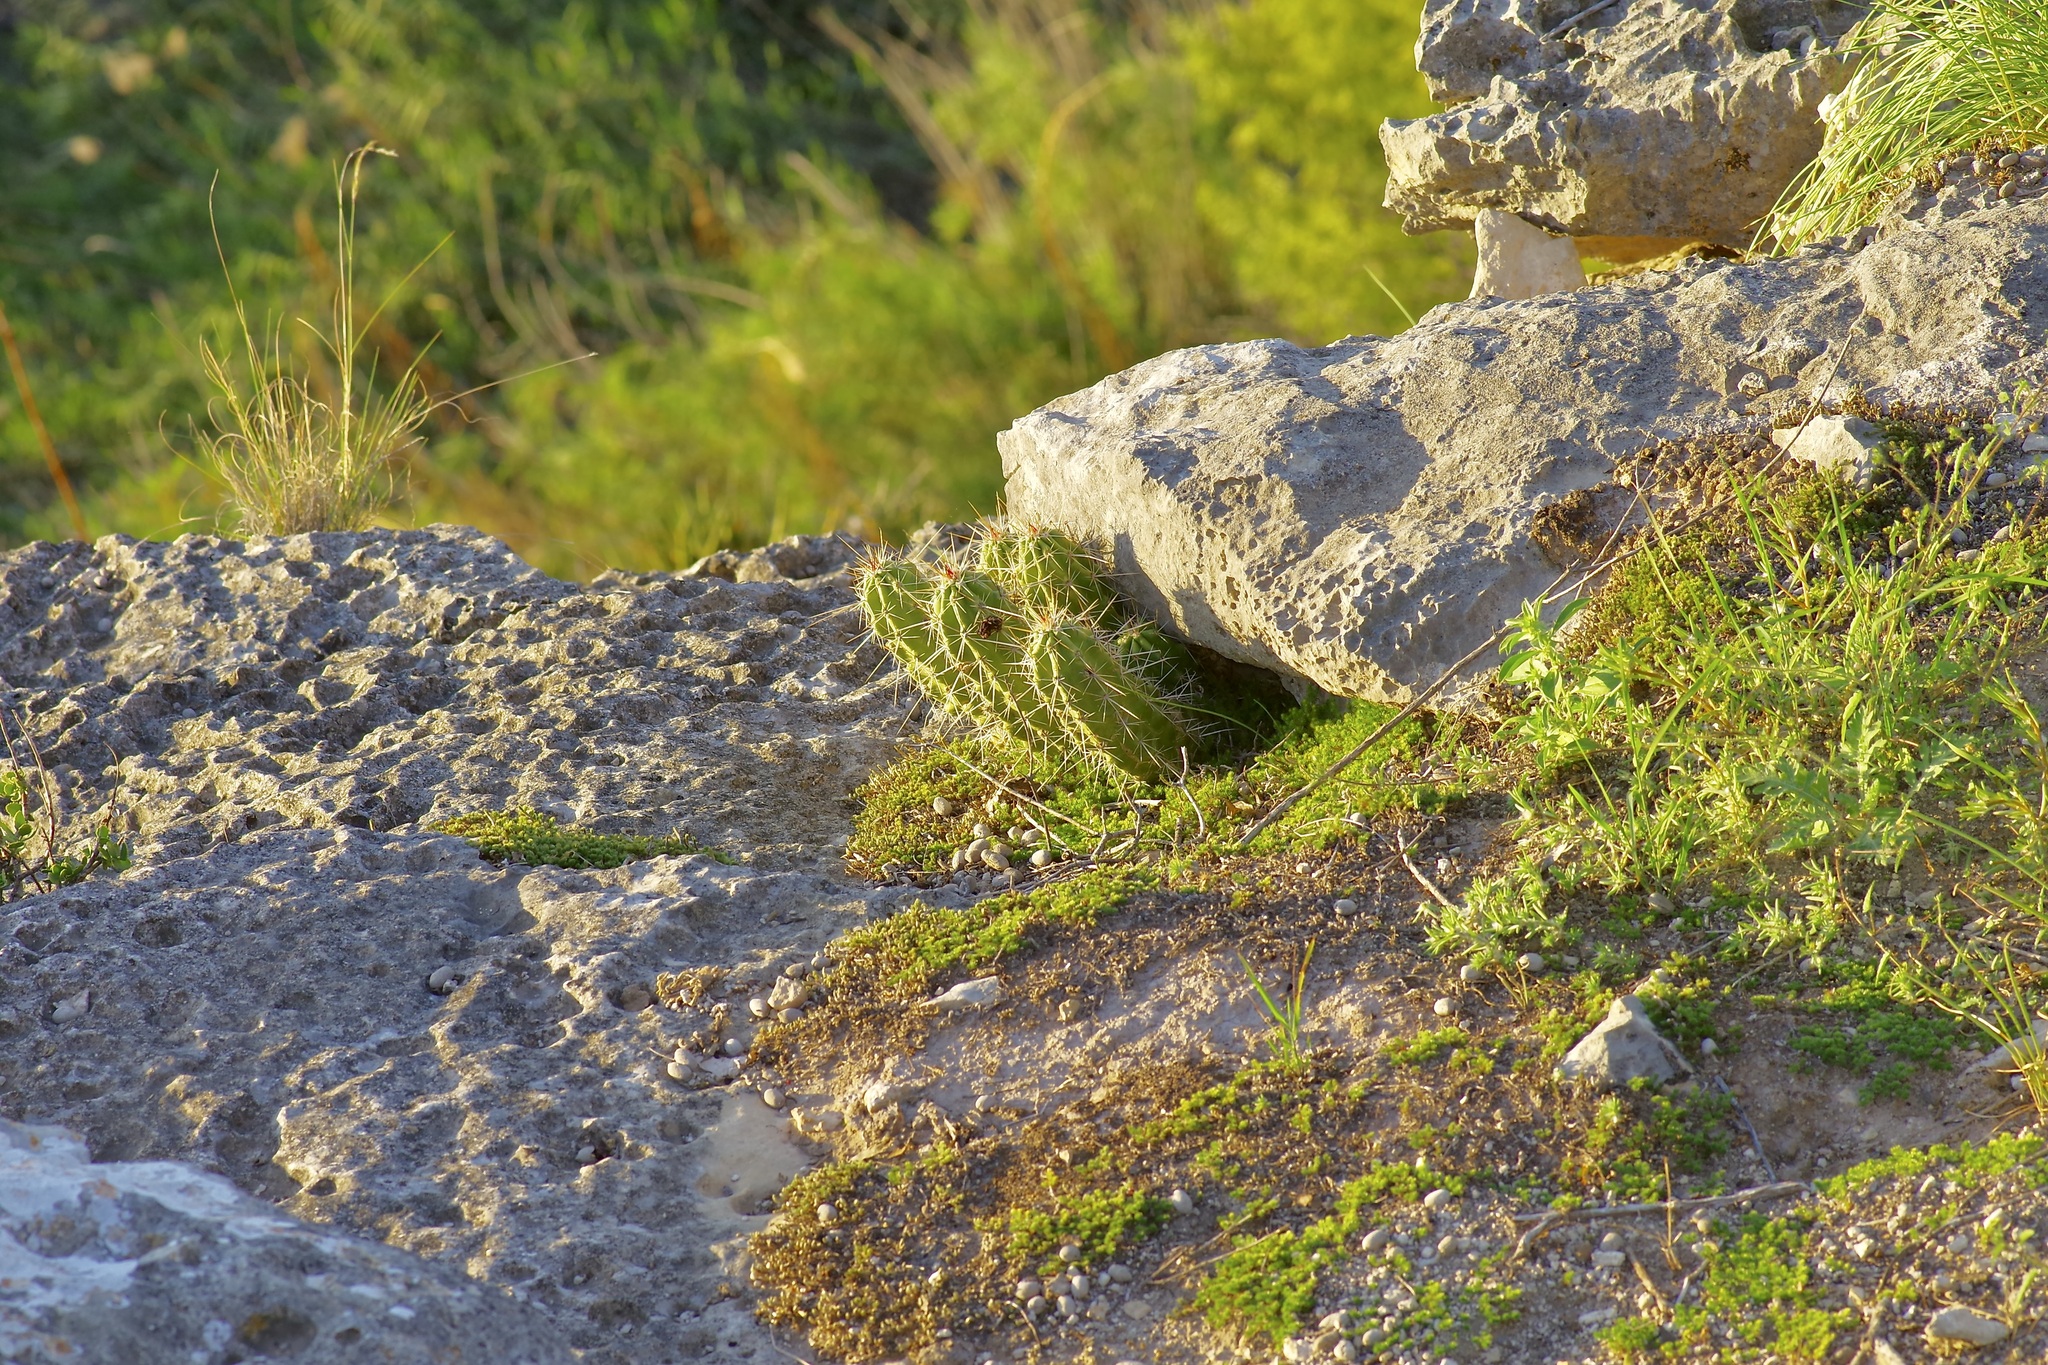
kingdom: Plantae
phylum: Tracheophyta
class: Magnoliopsida
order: Caryophyllales
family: Cactaceae
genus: Echinocereus
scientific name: Echinocereus enneacanthus
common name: Pitaya
